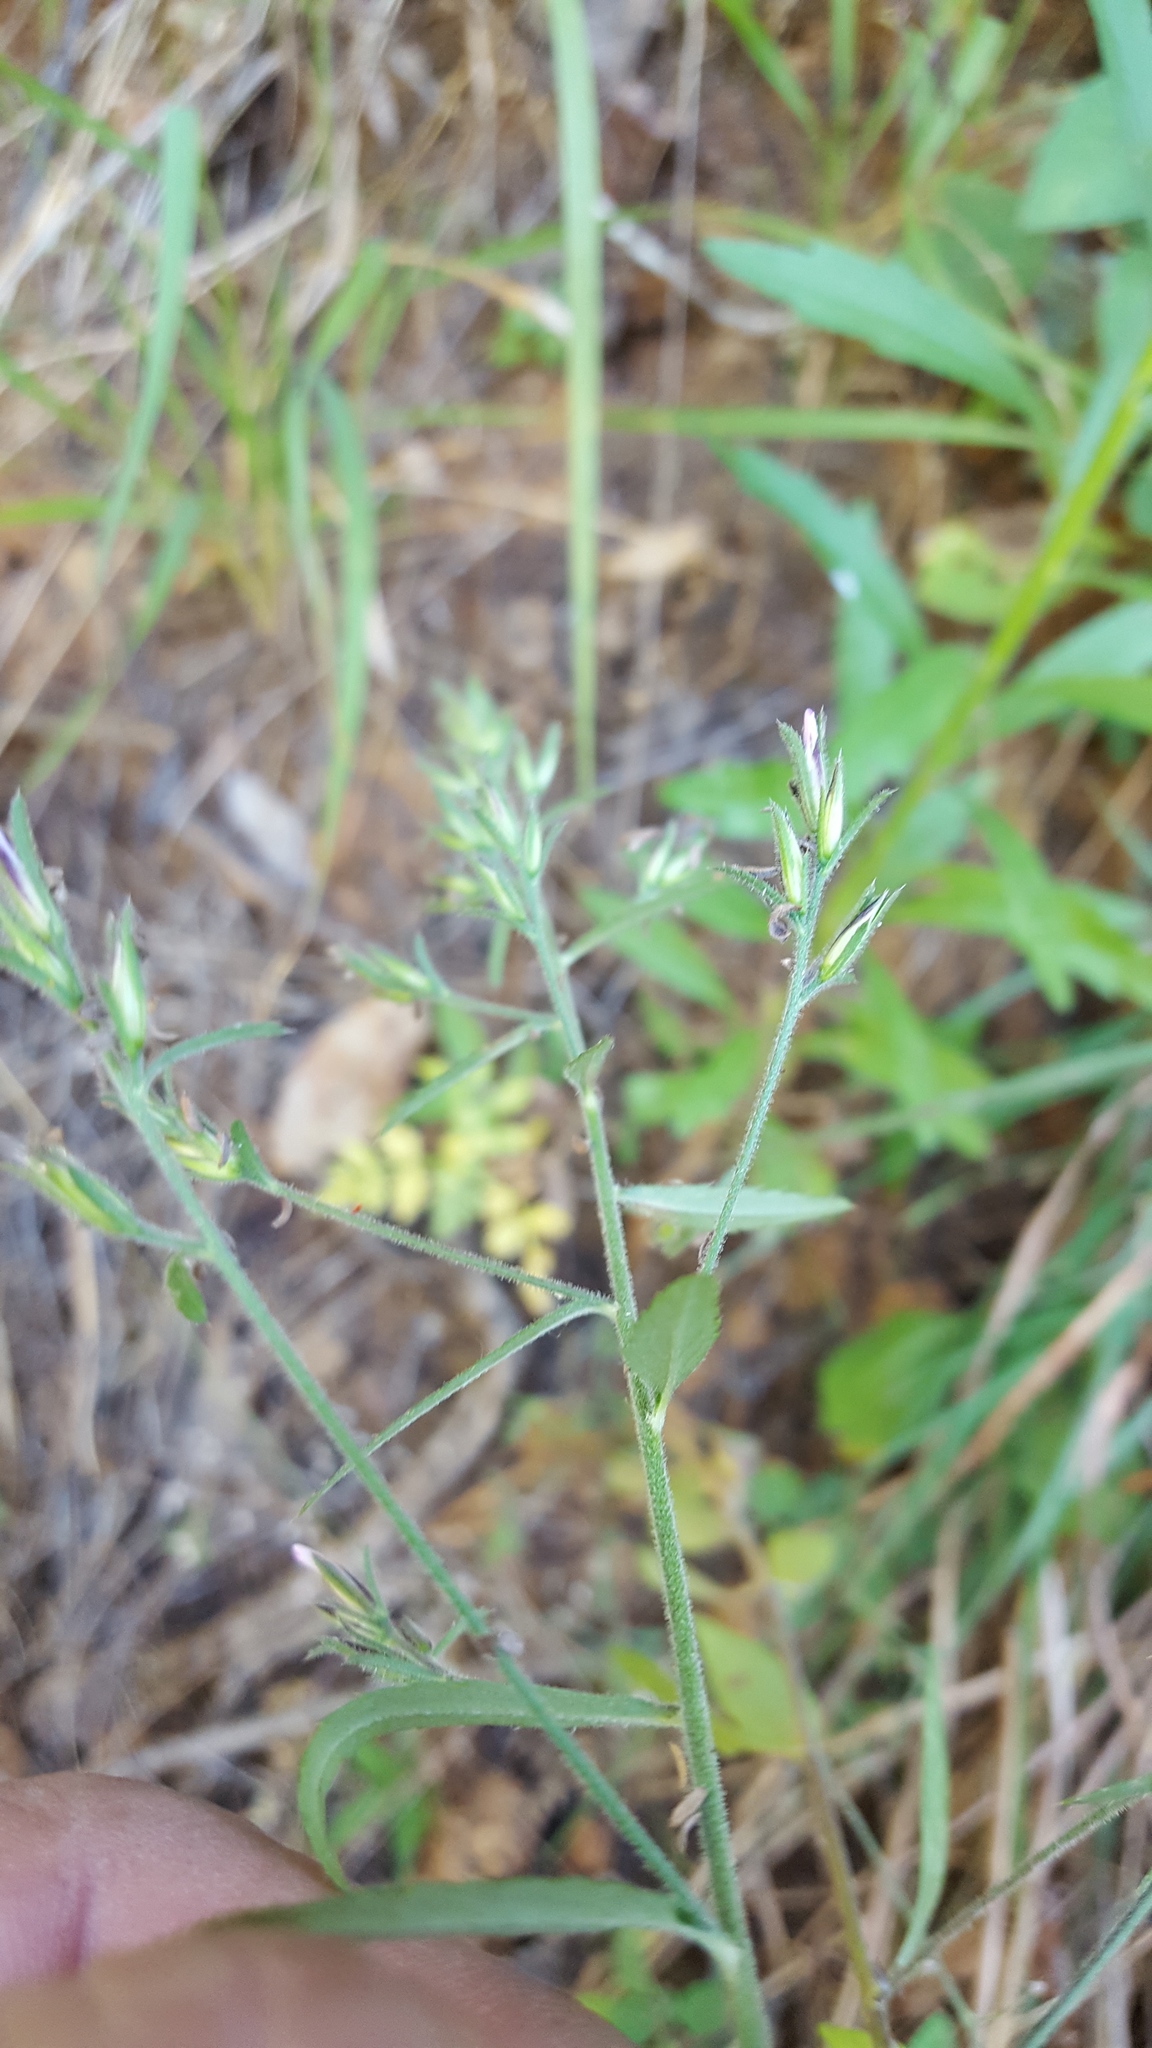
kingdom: Plantae
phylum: Tracheophyta
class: Magnoliopsida
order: Ericales
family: Polemoniaceae
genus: Loeselia
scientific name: Loeselia glandulosa
